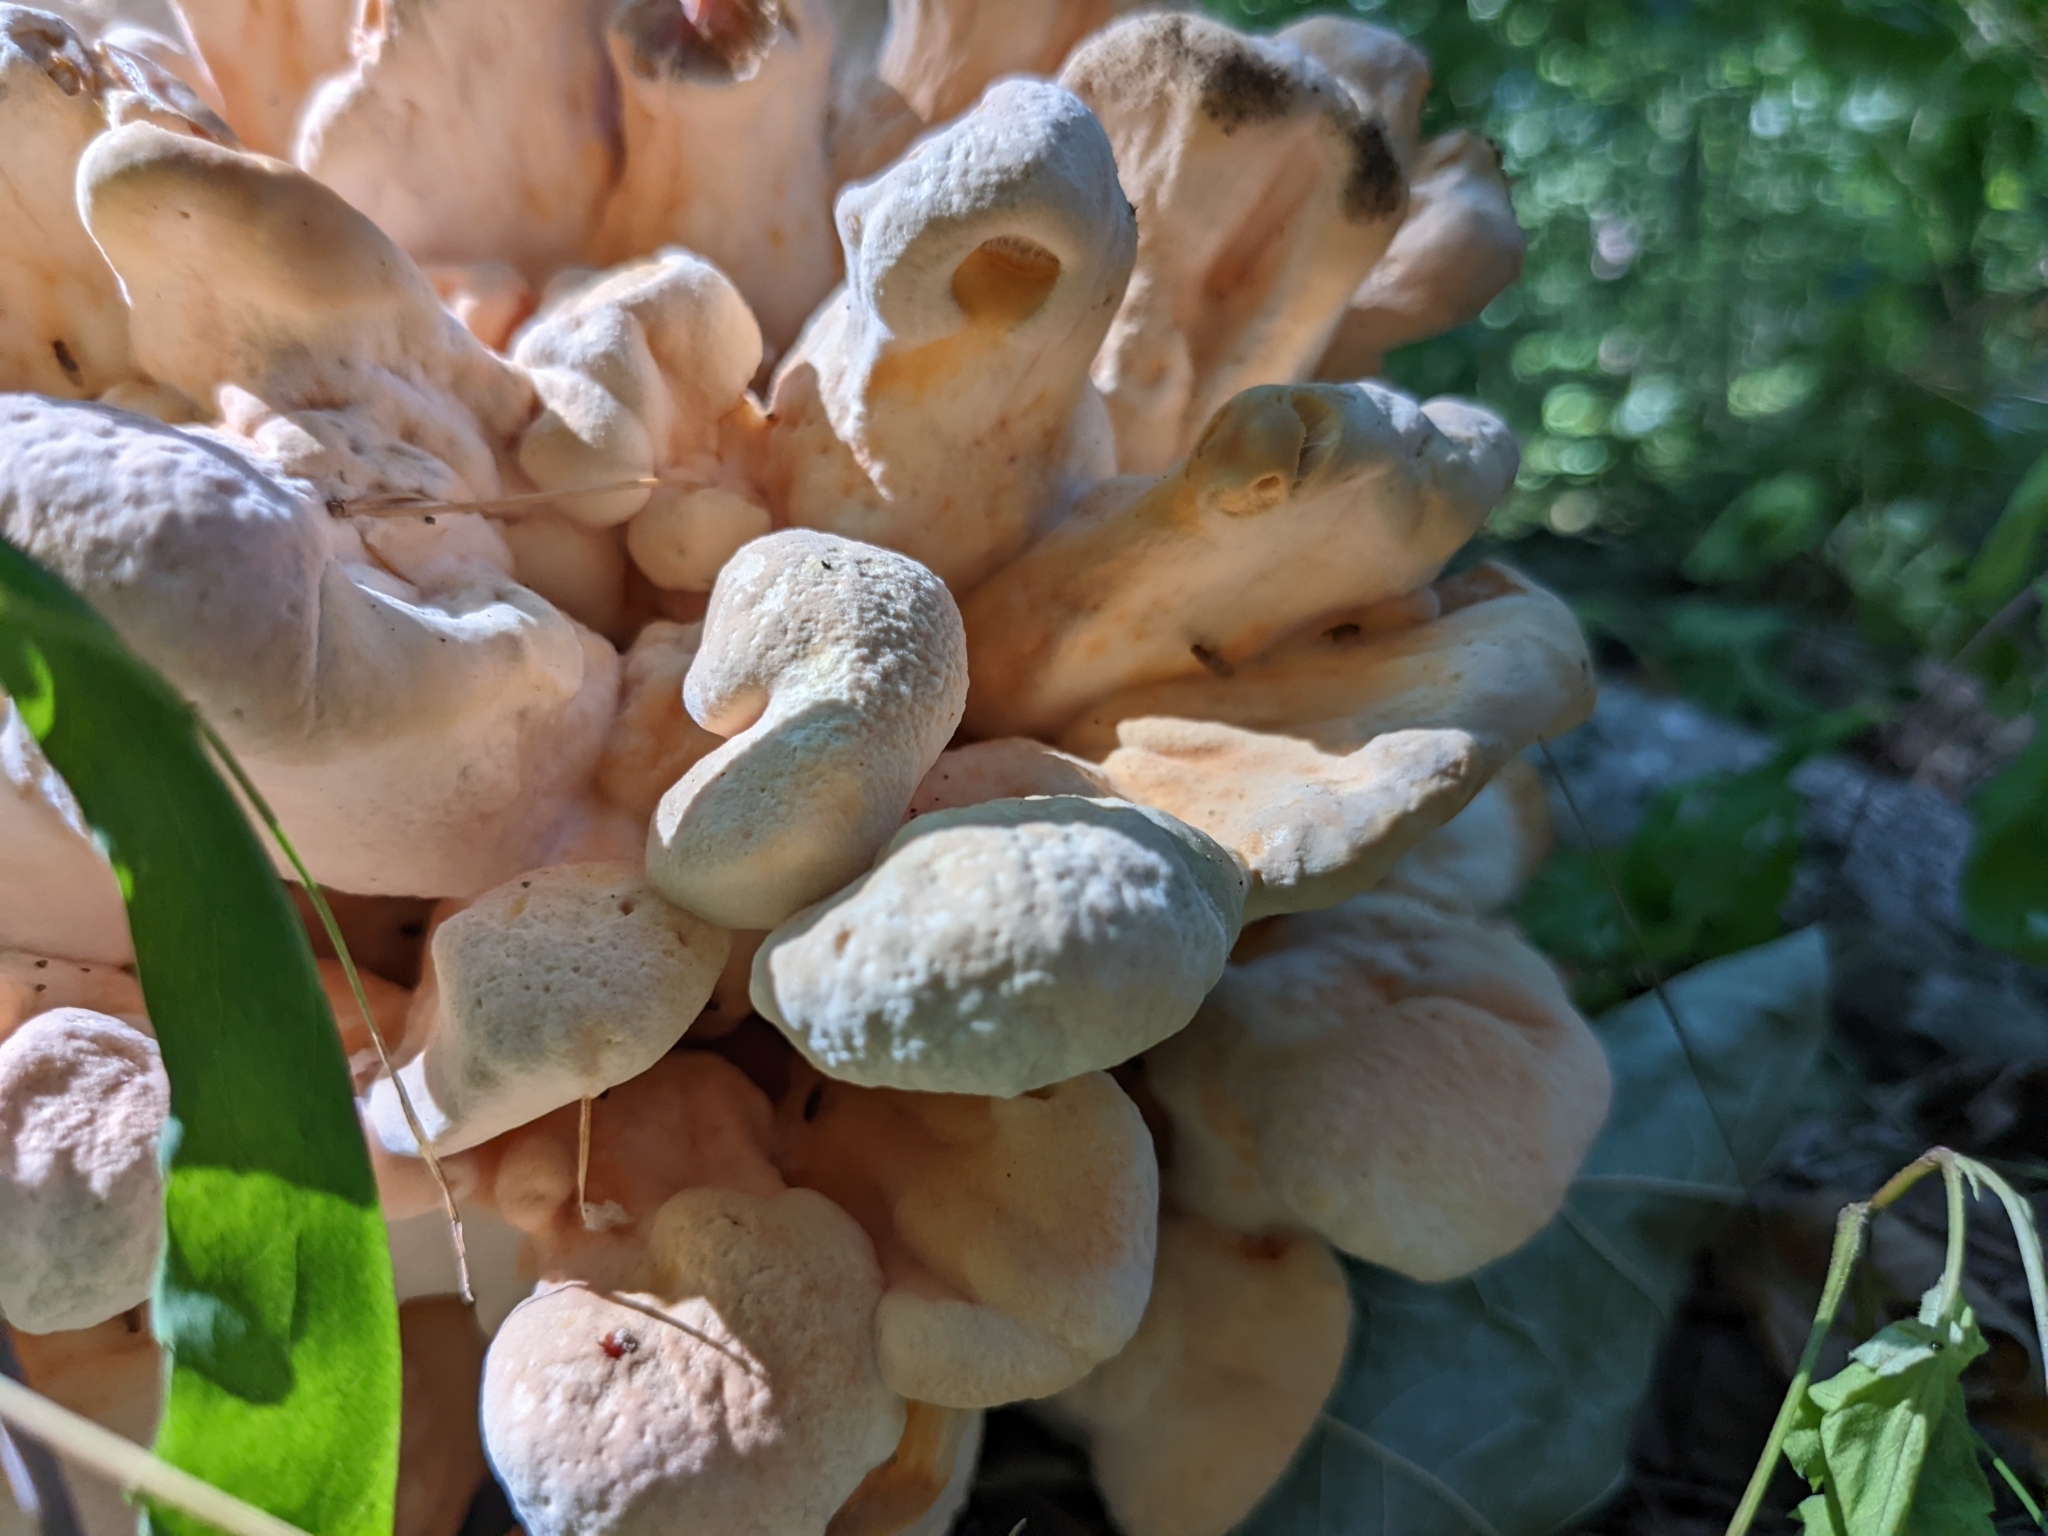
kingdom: Fungi
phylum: Basidiomycota
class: Agaricomycetes
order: Polyporales
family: Laetiporaceae
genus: Laetiporus
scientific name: Laetiporus sulphureus
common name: Chicken of the woods
